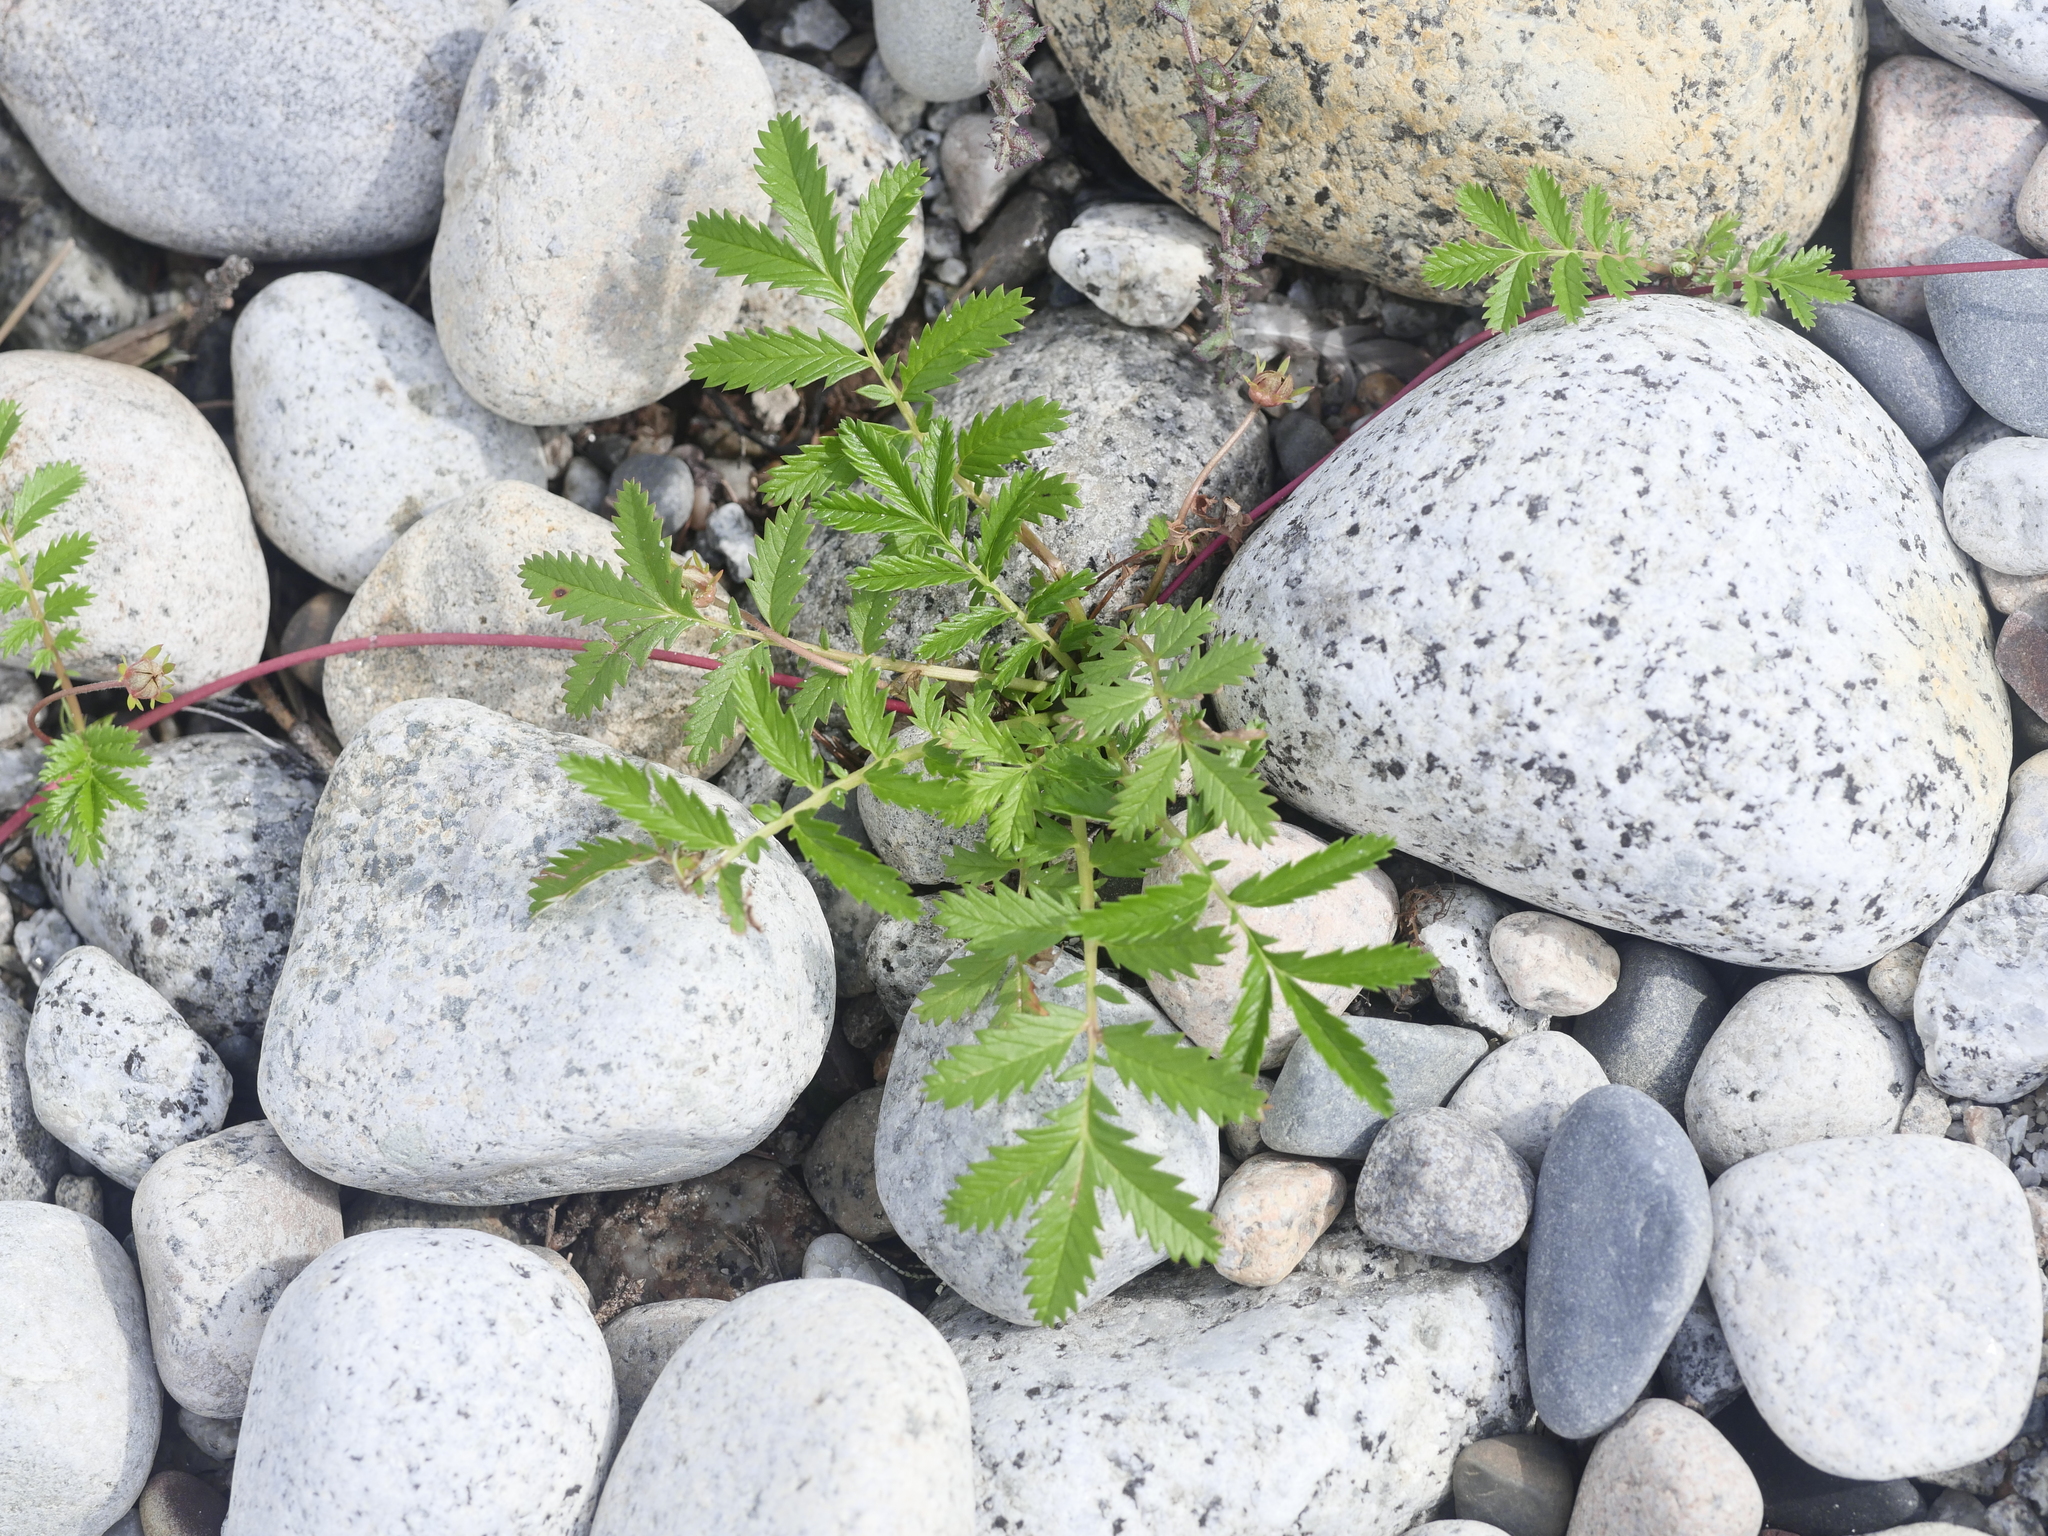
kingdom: Plantae
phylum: Tracheophyta
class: Magnoliopsida
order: Rosales
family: Rosaceae
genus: Argentina
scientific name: Argentina anserina
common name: Common silverweed
